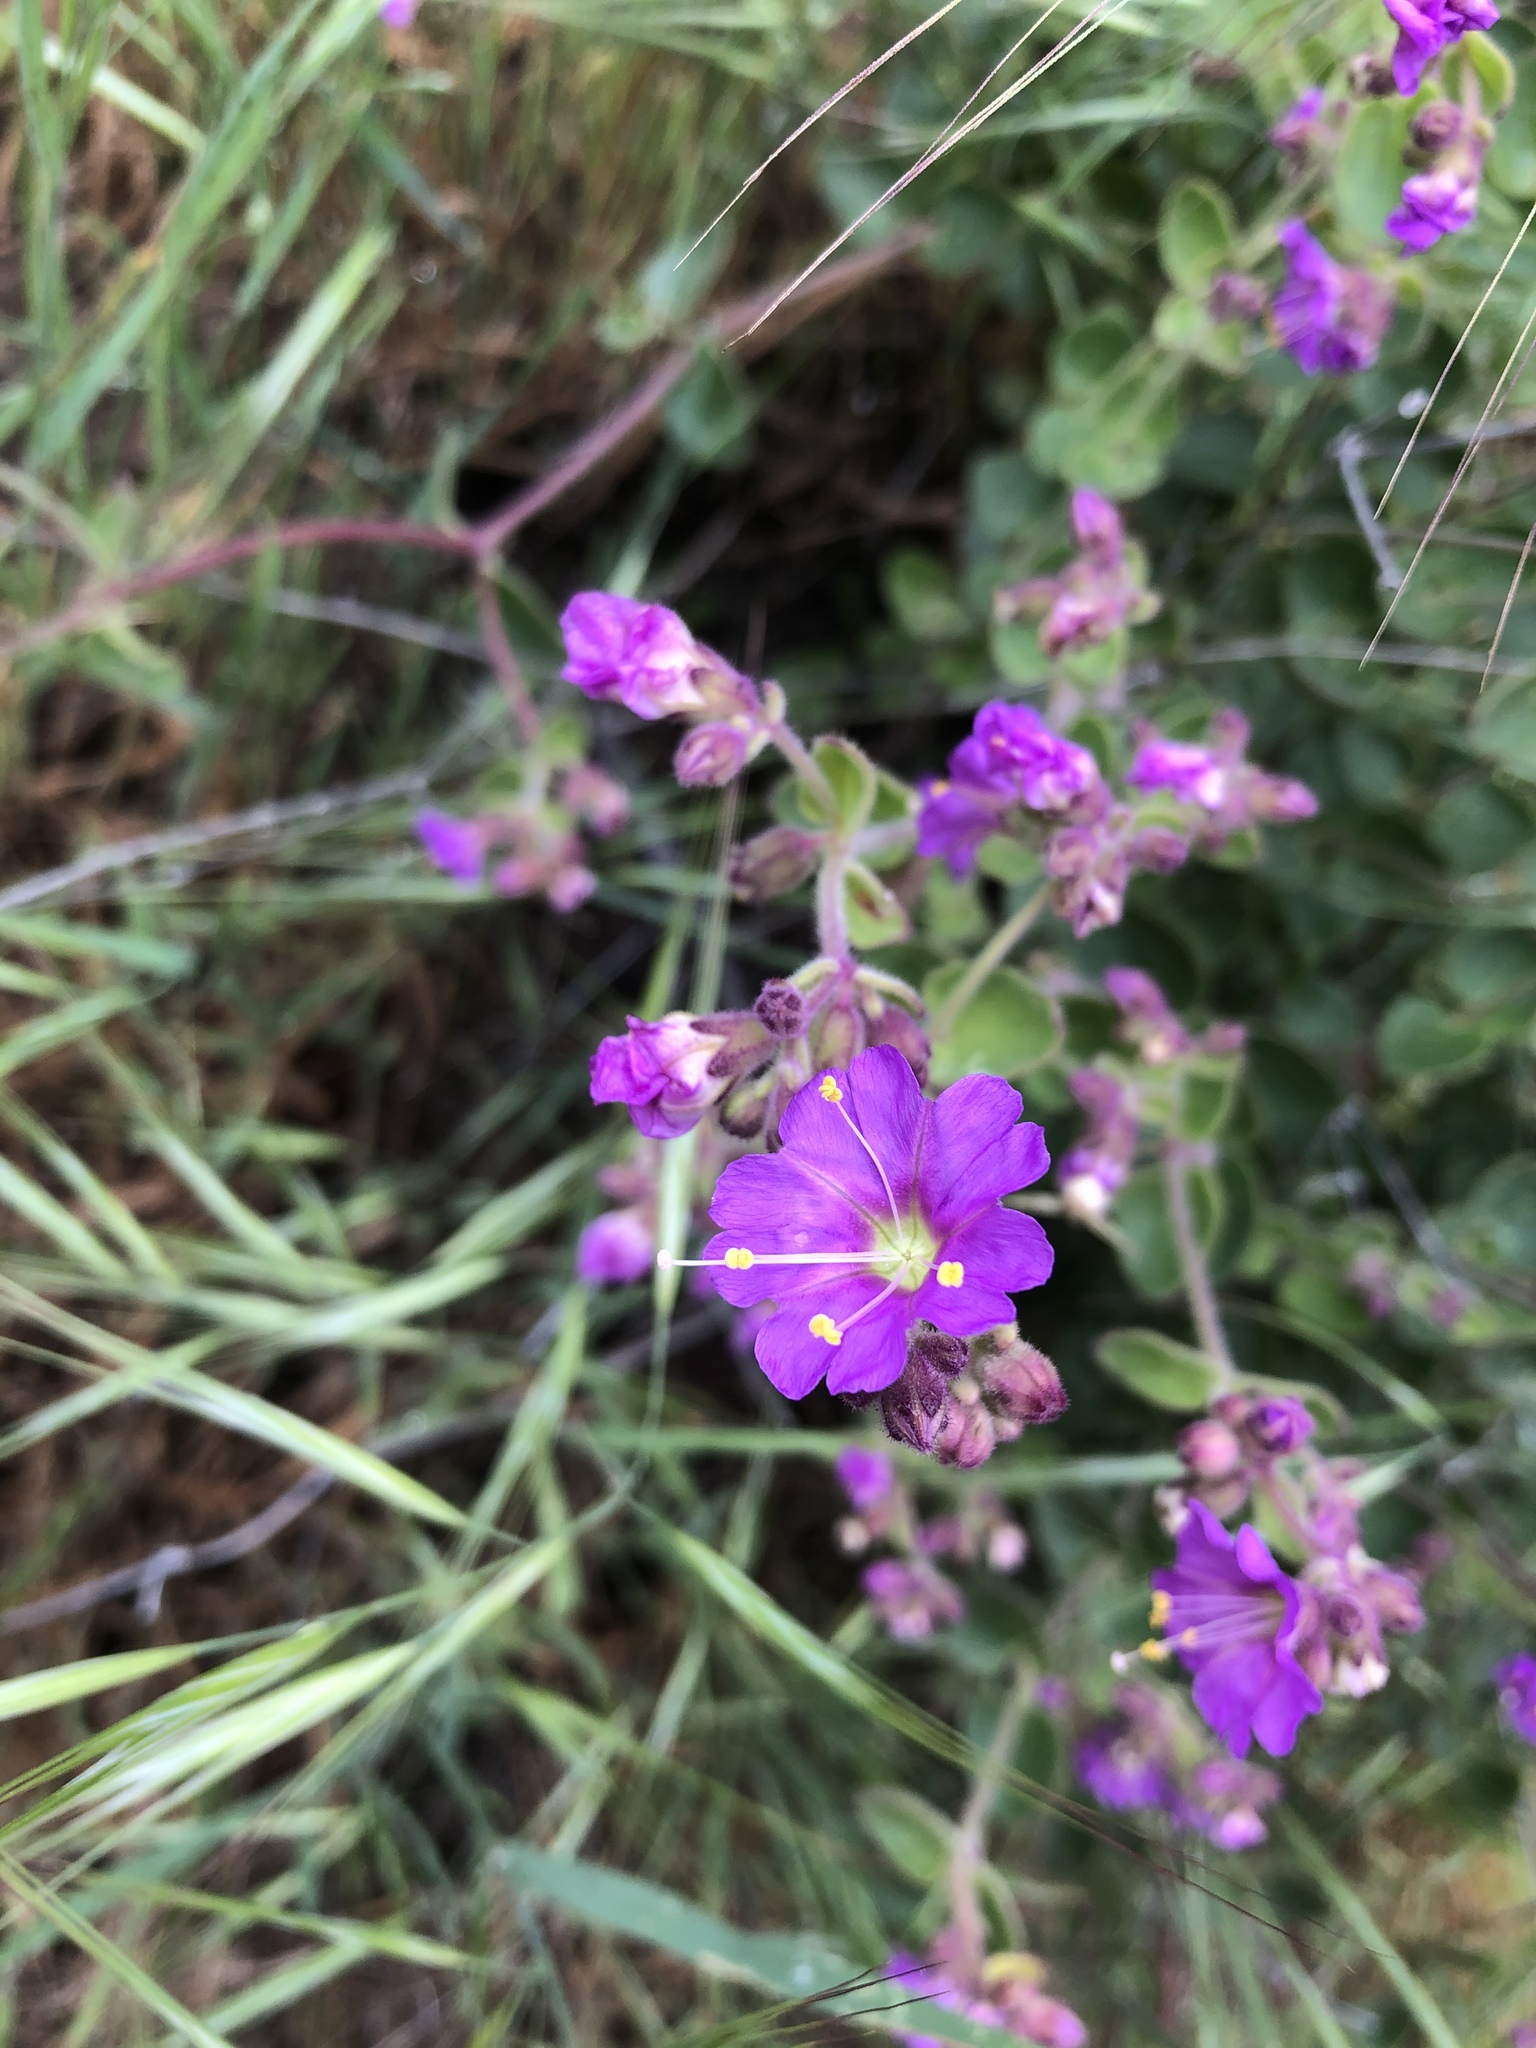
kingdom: Plantae
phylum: Tracheophyta
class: Magnoliopsida
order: Caryophyllales
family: Nyctaginaceae
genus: Mirabilis
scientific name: Mirabilis laevis
